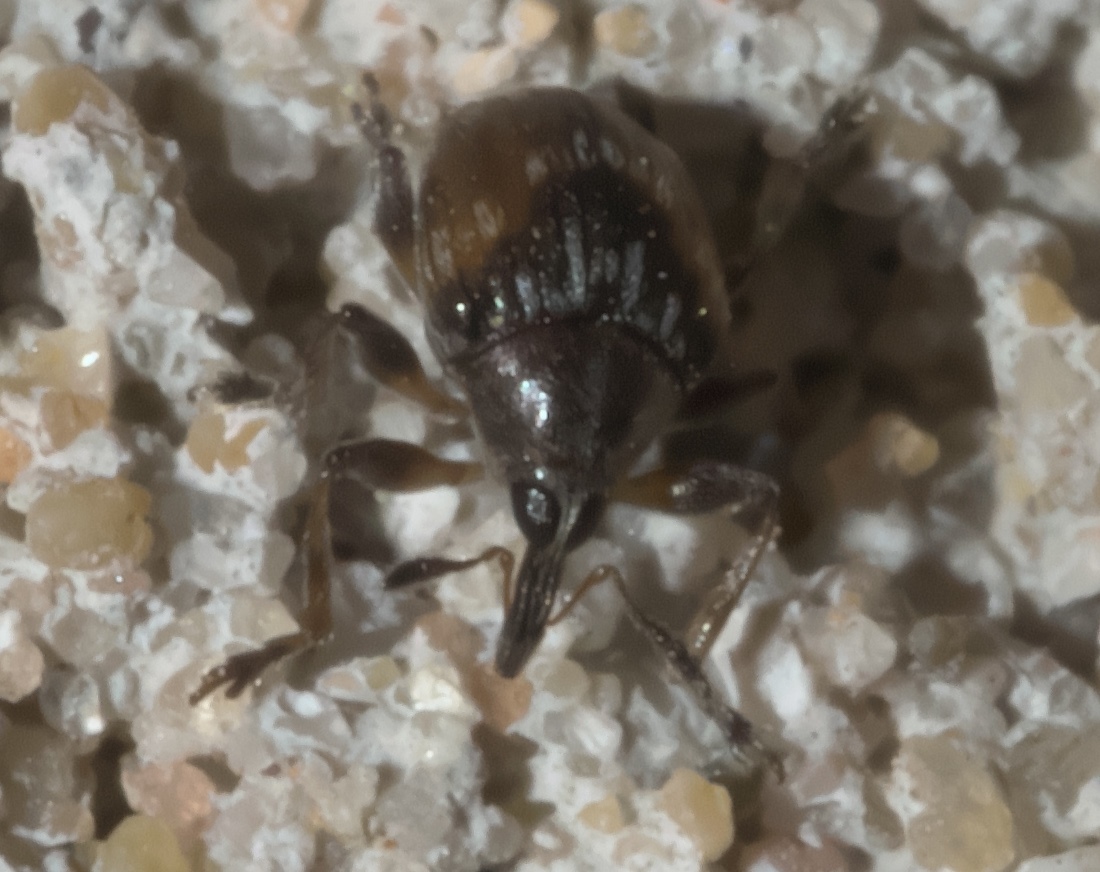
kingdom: Animalia
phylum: Arthropoda
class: Insecta
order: Coleoptera
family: Brentidae
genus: Nanodactylus
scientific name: Nanodactylus
